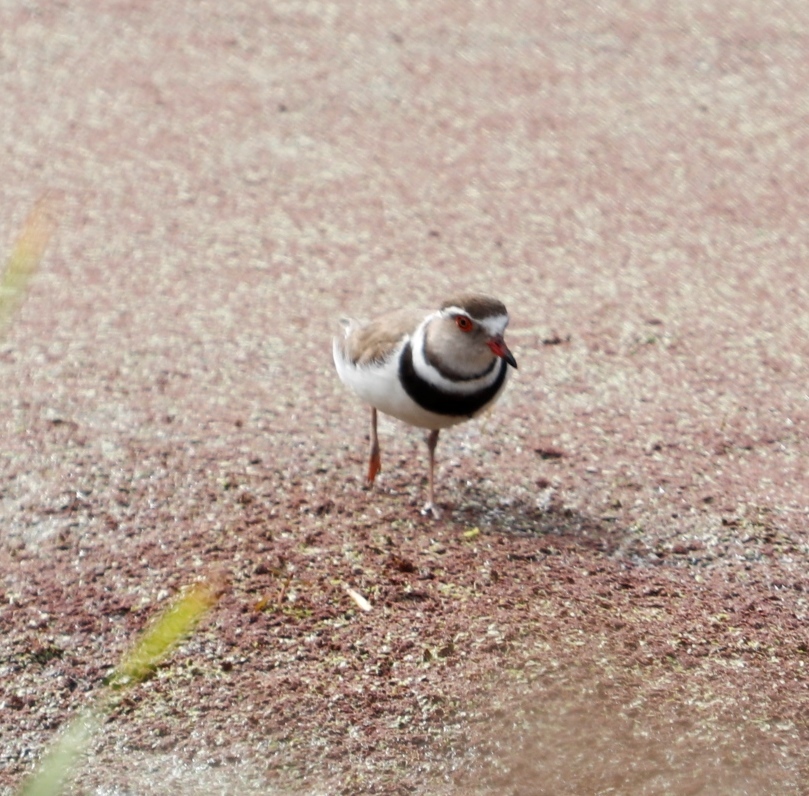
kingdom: Animalia
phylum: Chordata
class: Aves
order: Charadriiformes
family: Charadriidae
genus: Charadrius
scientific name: Charadrius tricollaris
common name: Three-banded plover
